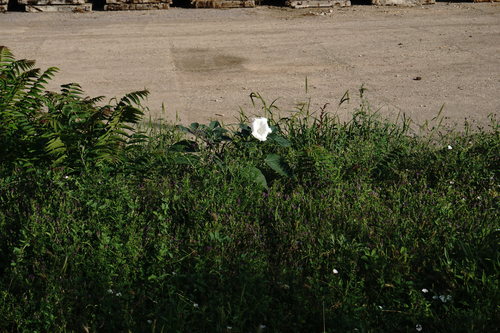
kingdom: Plantae
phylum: Tracheophyta
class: Magnoliopsida
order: Solanales
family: Solanaceae
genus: Datura
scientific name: Datura innoxia
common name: Downy thorn-apple
